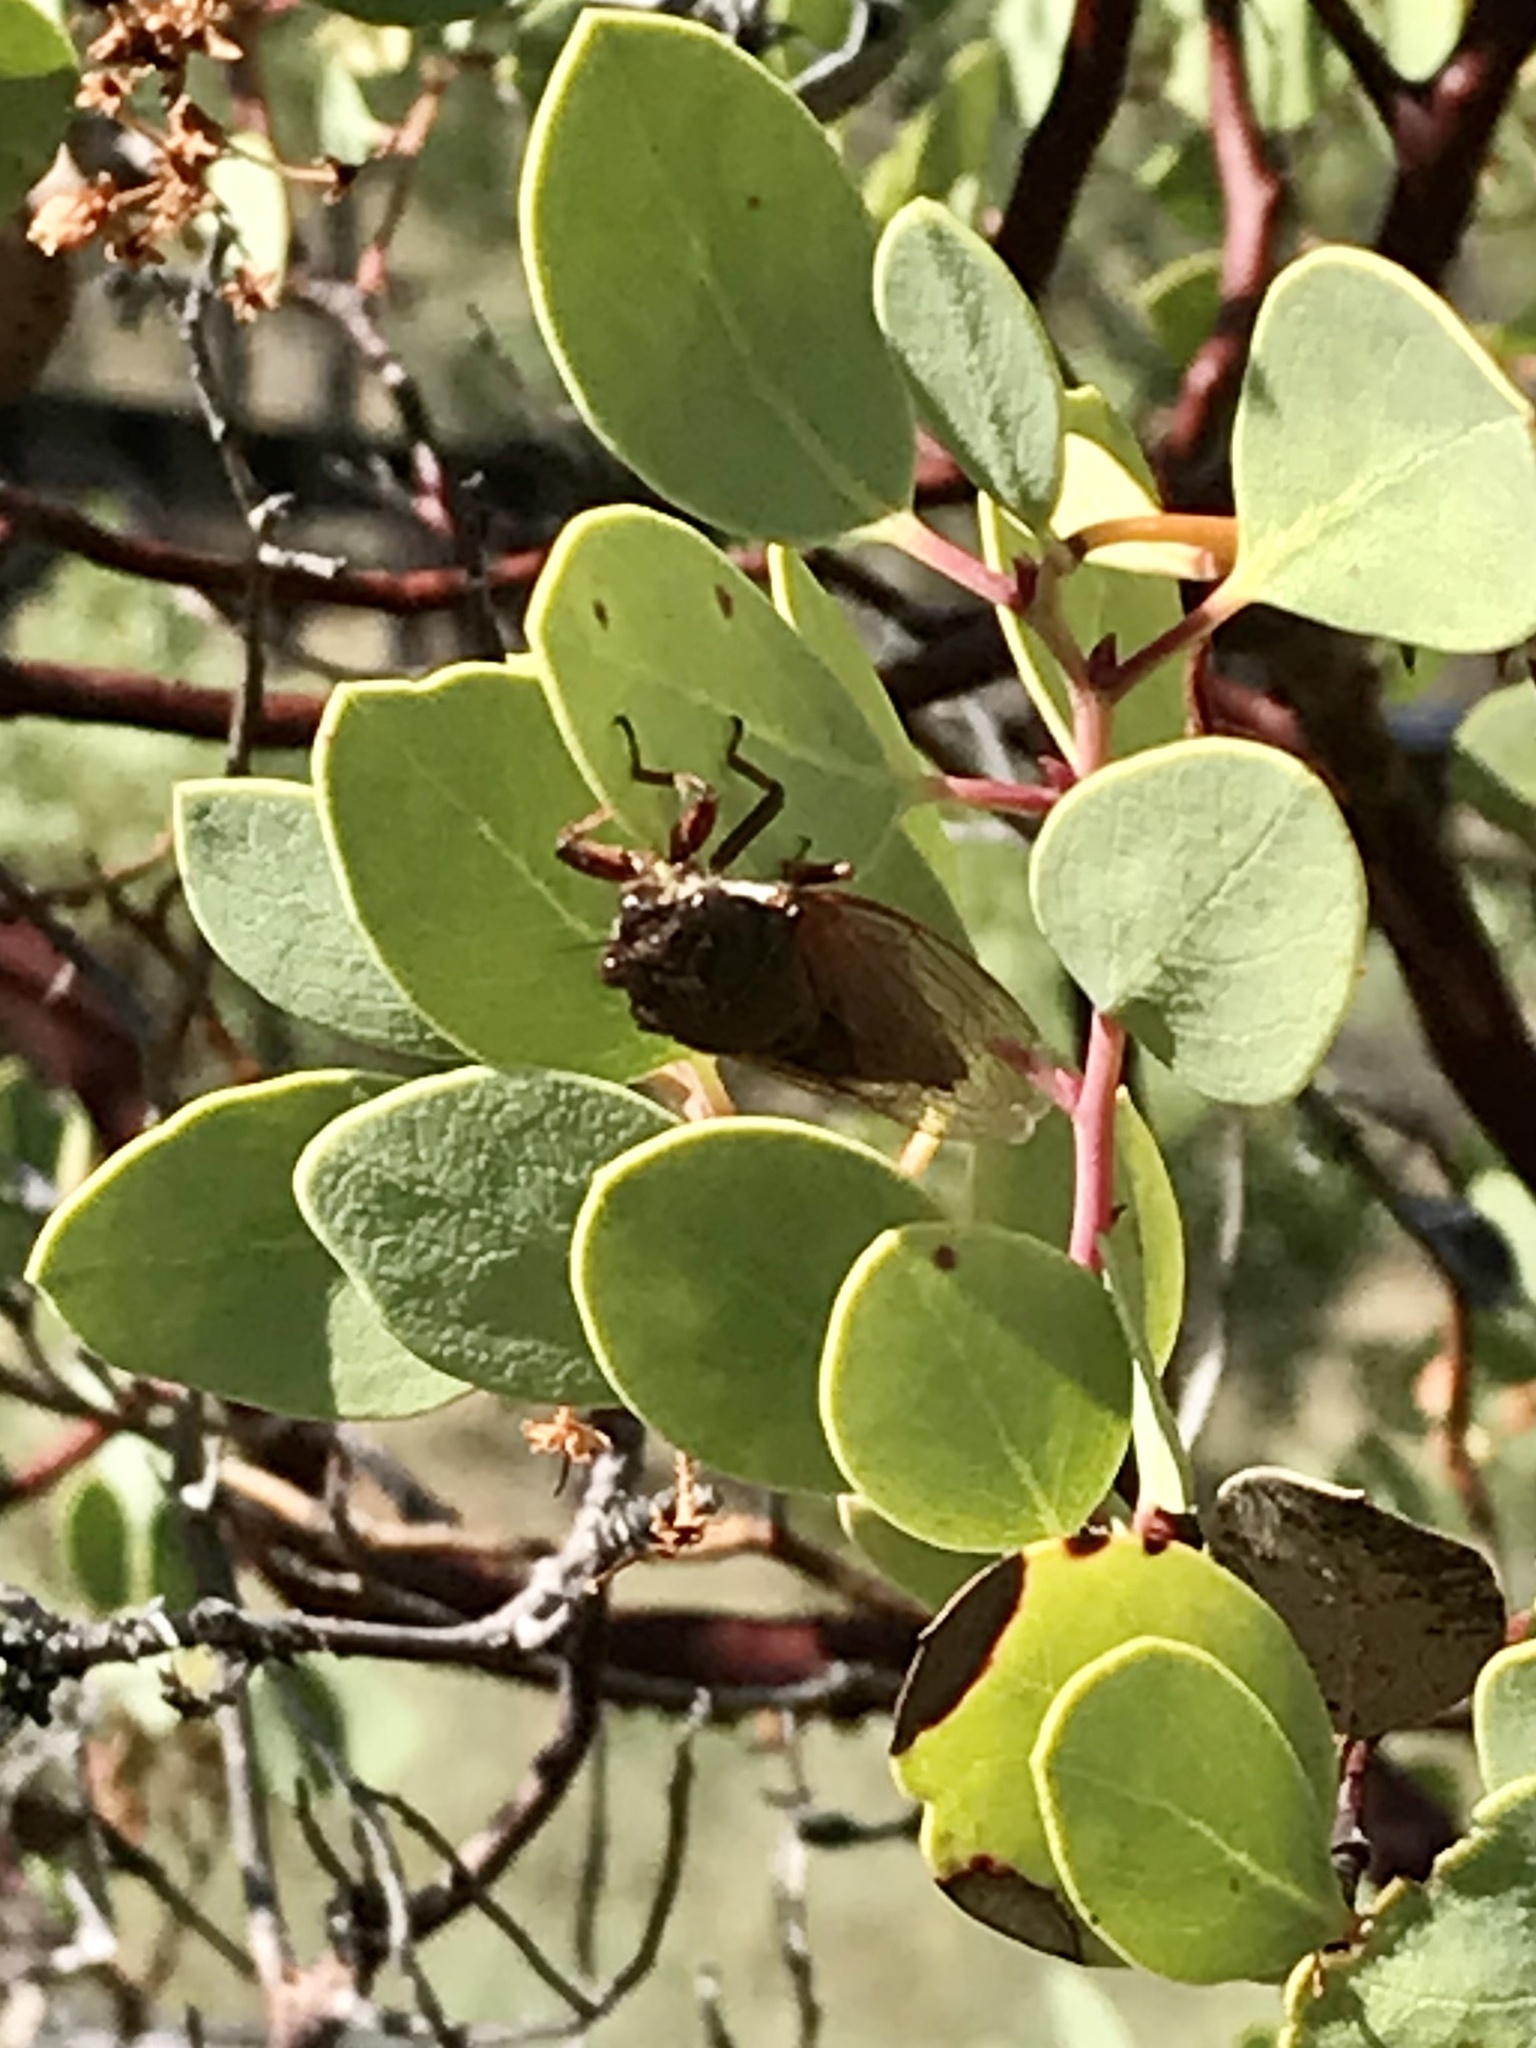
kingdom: Animalia
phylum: Arthropoda
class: Insecta
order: Hemiptera
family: Cicadidae
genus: Tibicinoides
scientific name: Tibicinoides
